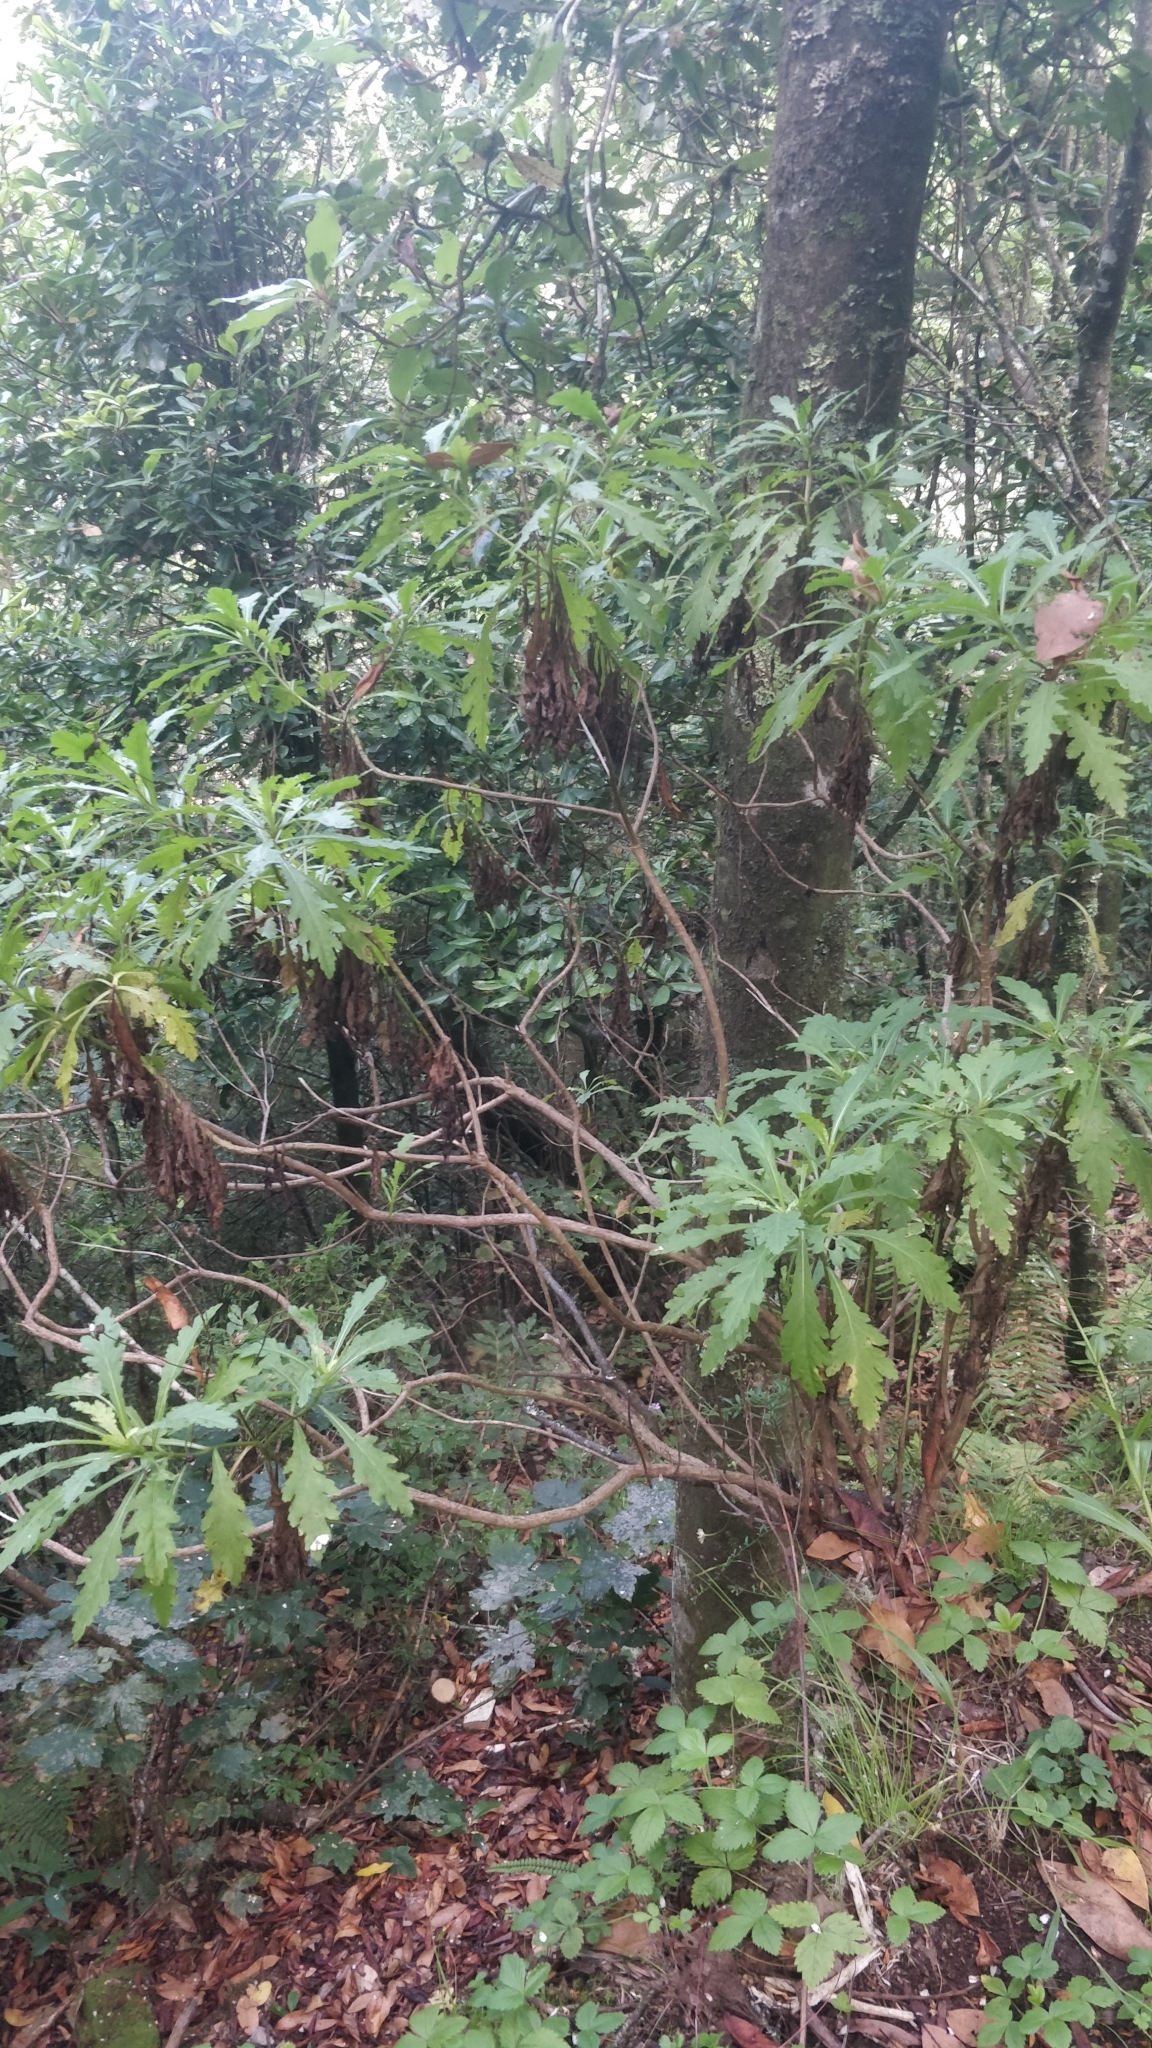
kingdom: Plantae
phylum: Tracheophyta
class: Magnoliopsida
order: Asterales
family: Asteraceae
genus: Argyranthemum
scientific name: Argyranthemum pinnatifidum
